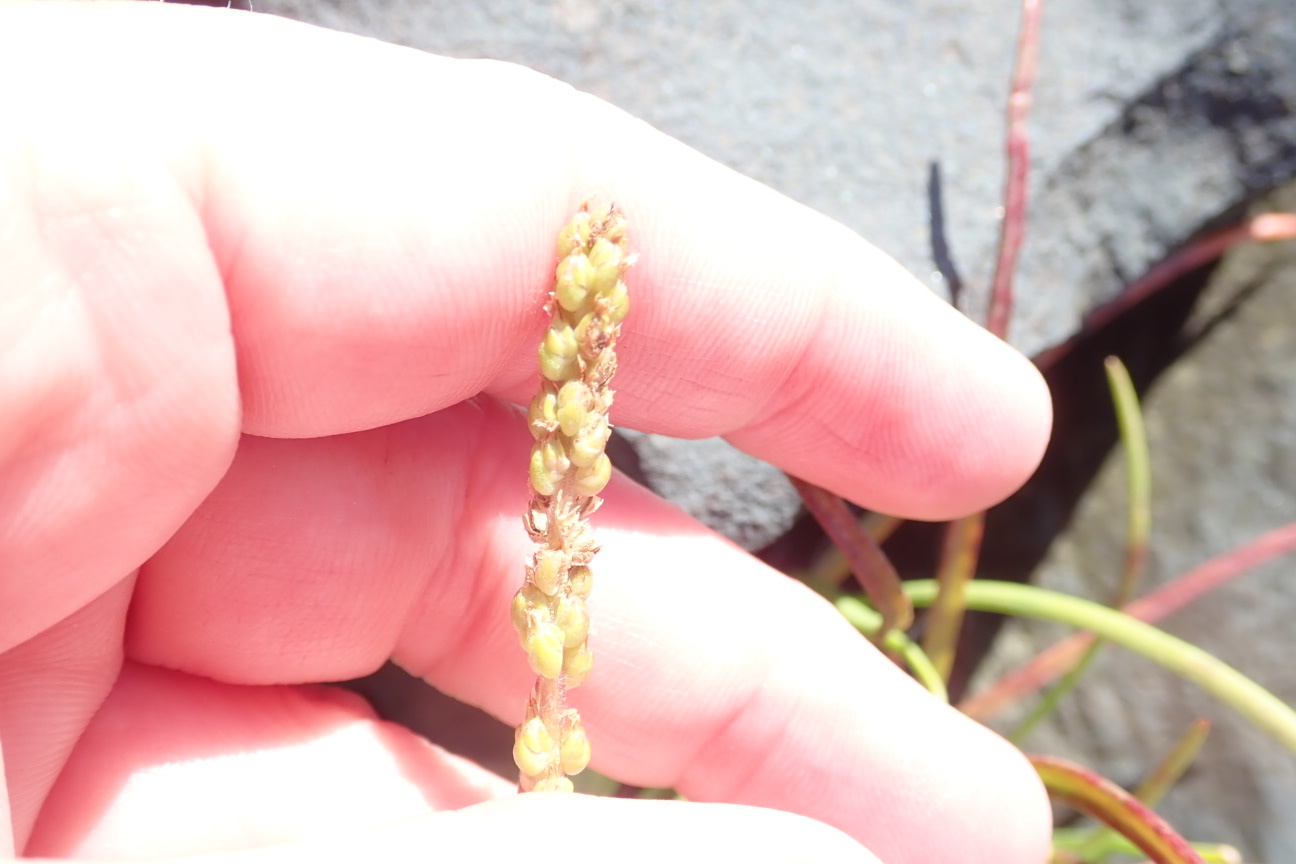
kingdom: Plantae
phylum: Tracheophyta
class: Magnoliopsida
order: Lamiales
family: Plantaginaceae
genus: Plantago
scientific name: Plantago maritima
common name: Sea plantain
